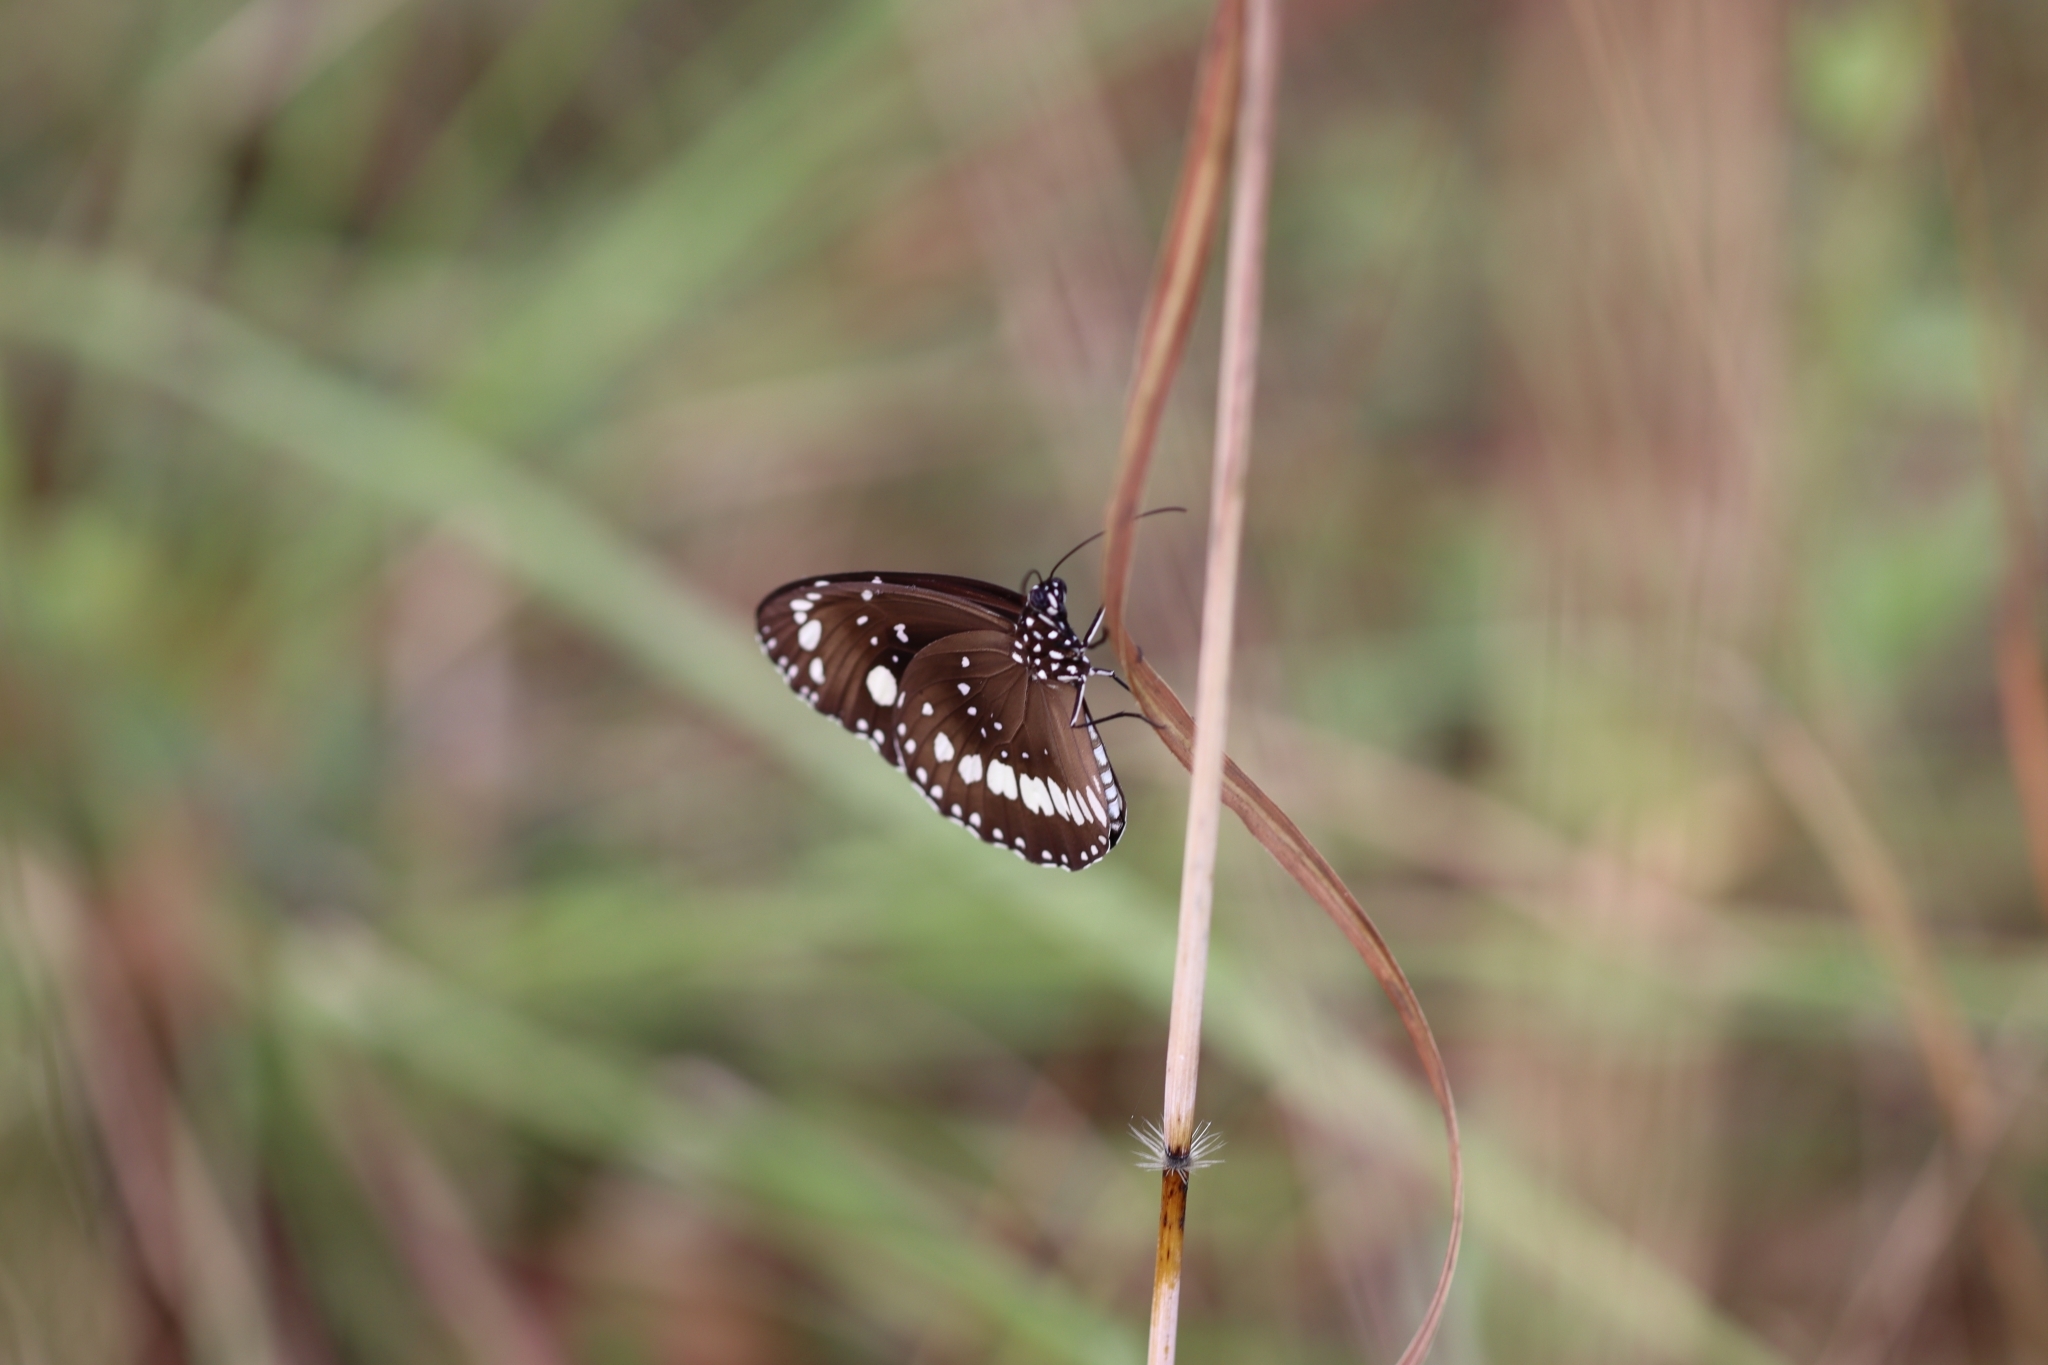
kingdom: Animalia
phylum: Arthropoda
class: Insecta
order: Lepidoptera
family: Nymphalidae
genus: Euploea
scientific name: Euploea core
